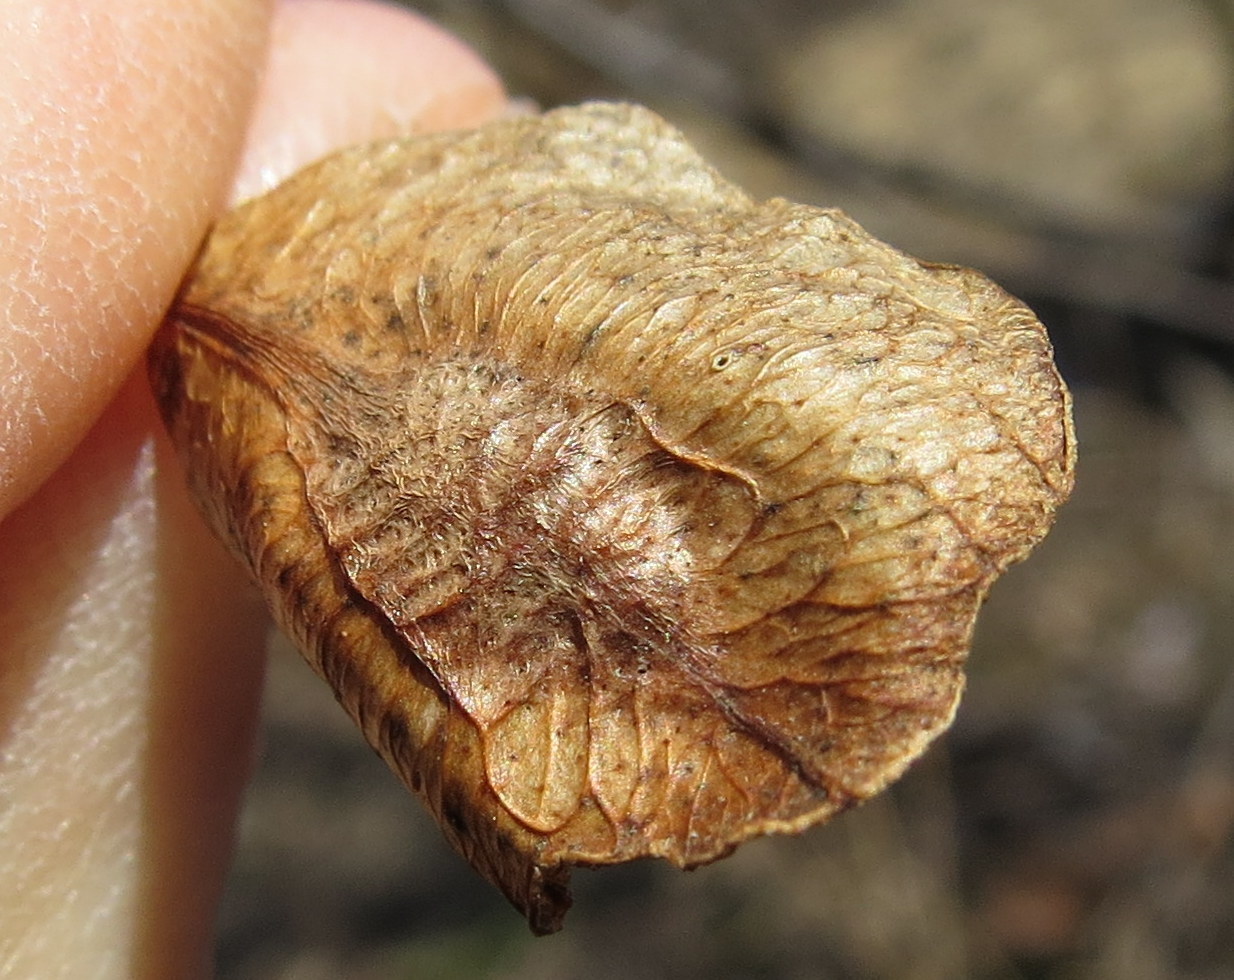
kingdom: Plantae
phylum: Tracheophyta
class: Magnoliopsida
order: Sapindales
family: Rutaceae
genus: Ptelea
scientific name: Ptelea trifoliata
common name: Common hop-tree
